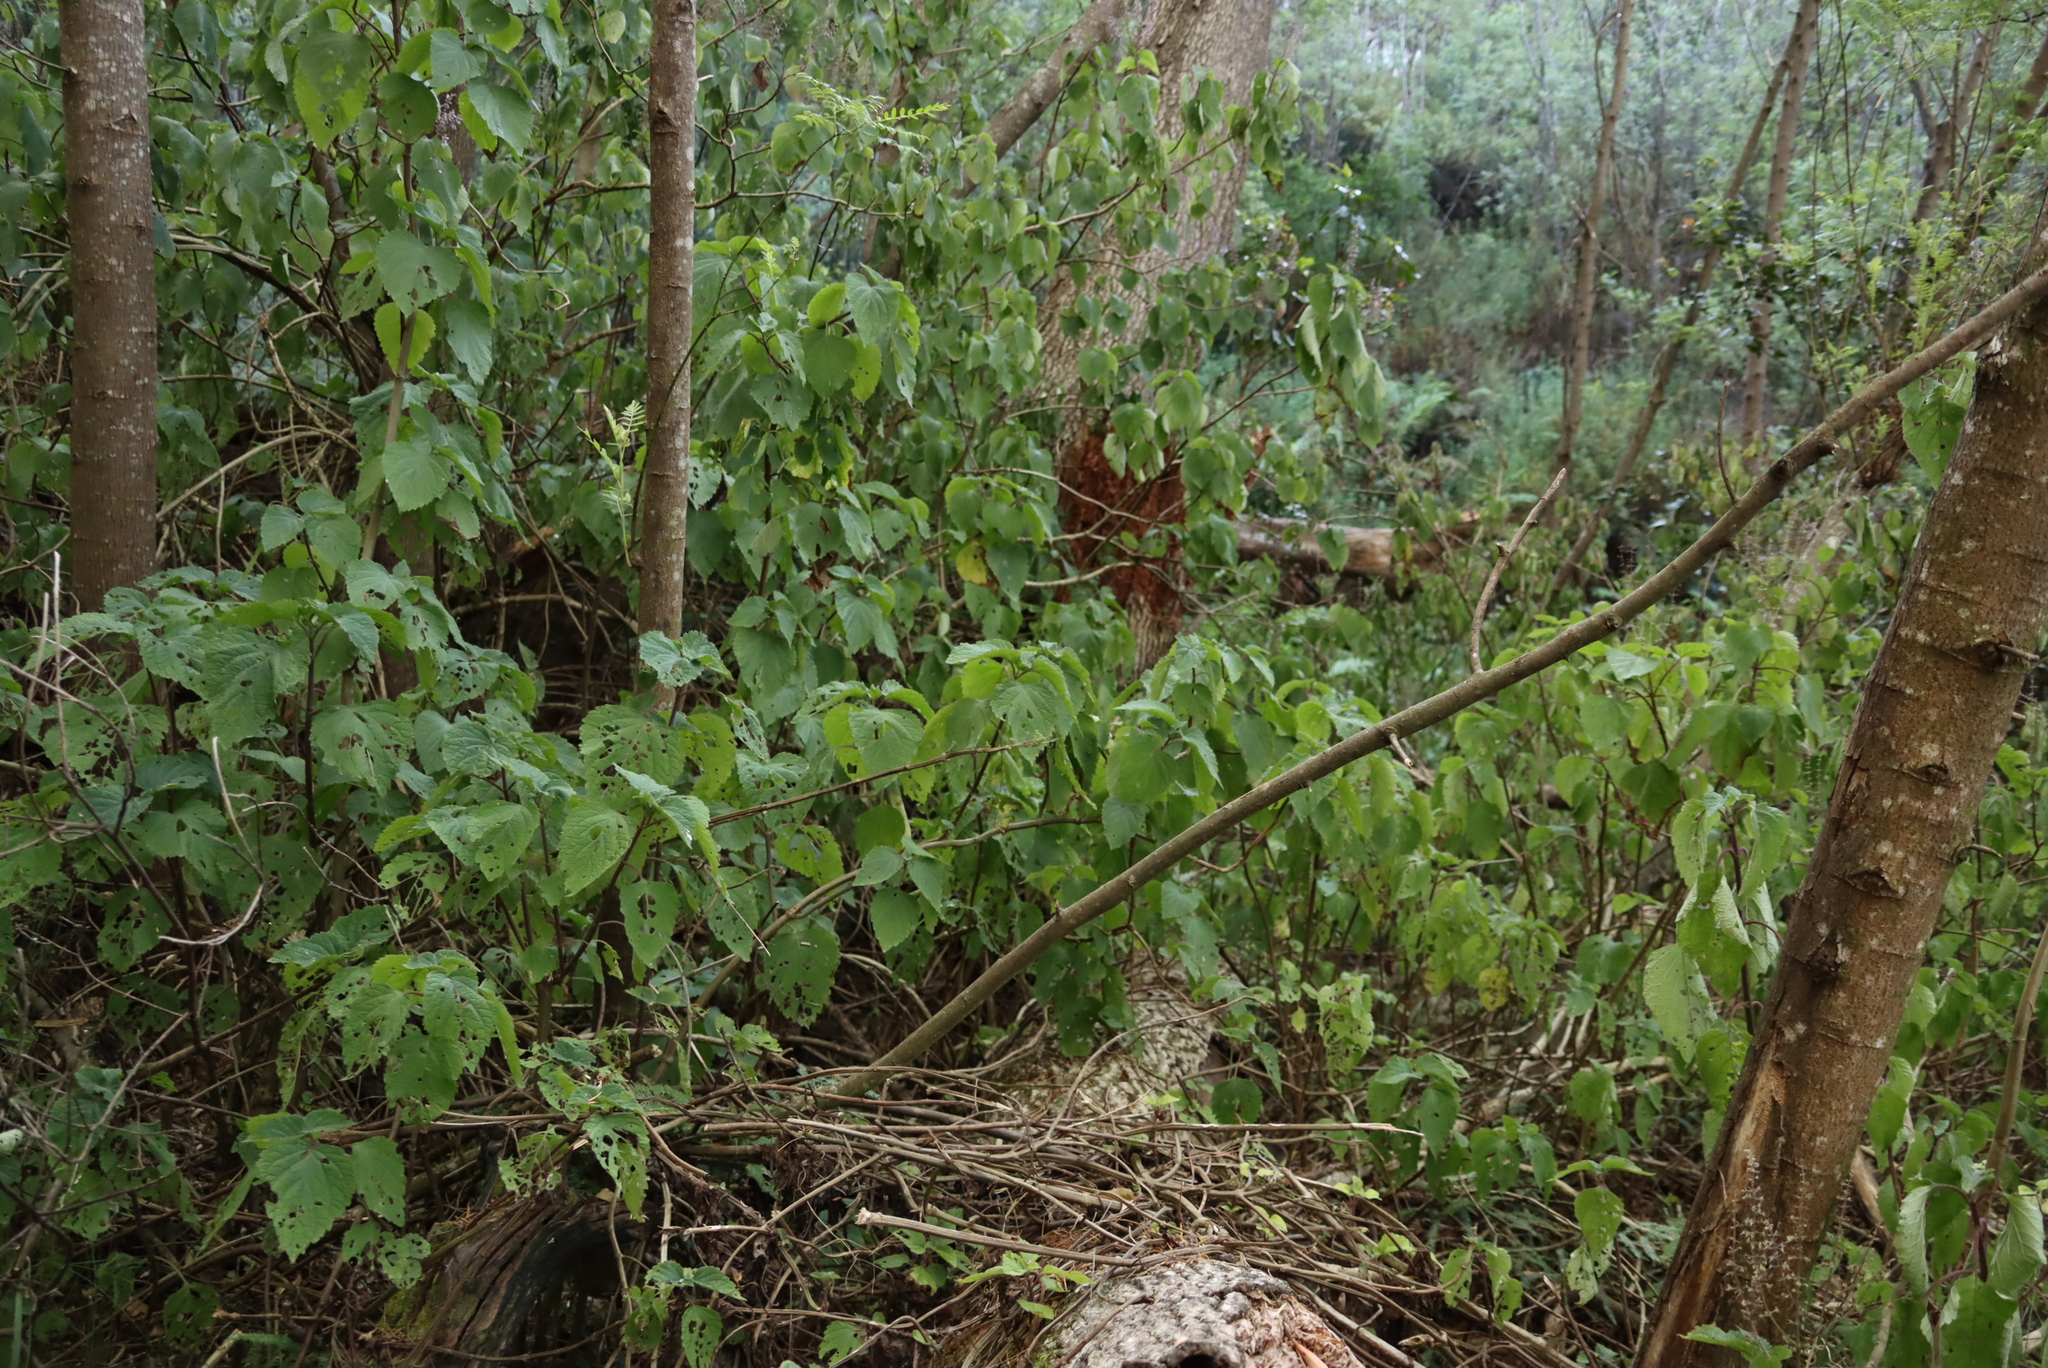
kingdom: Plantae
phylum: Tracheophyta
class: Magnoliopsida
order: Lamiales
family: Lamiaceae
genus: Plectranthus
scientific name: Plectranthus fruticosus
